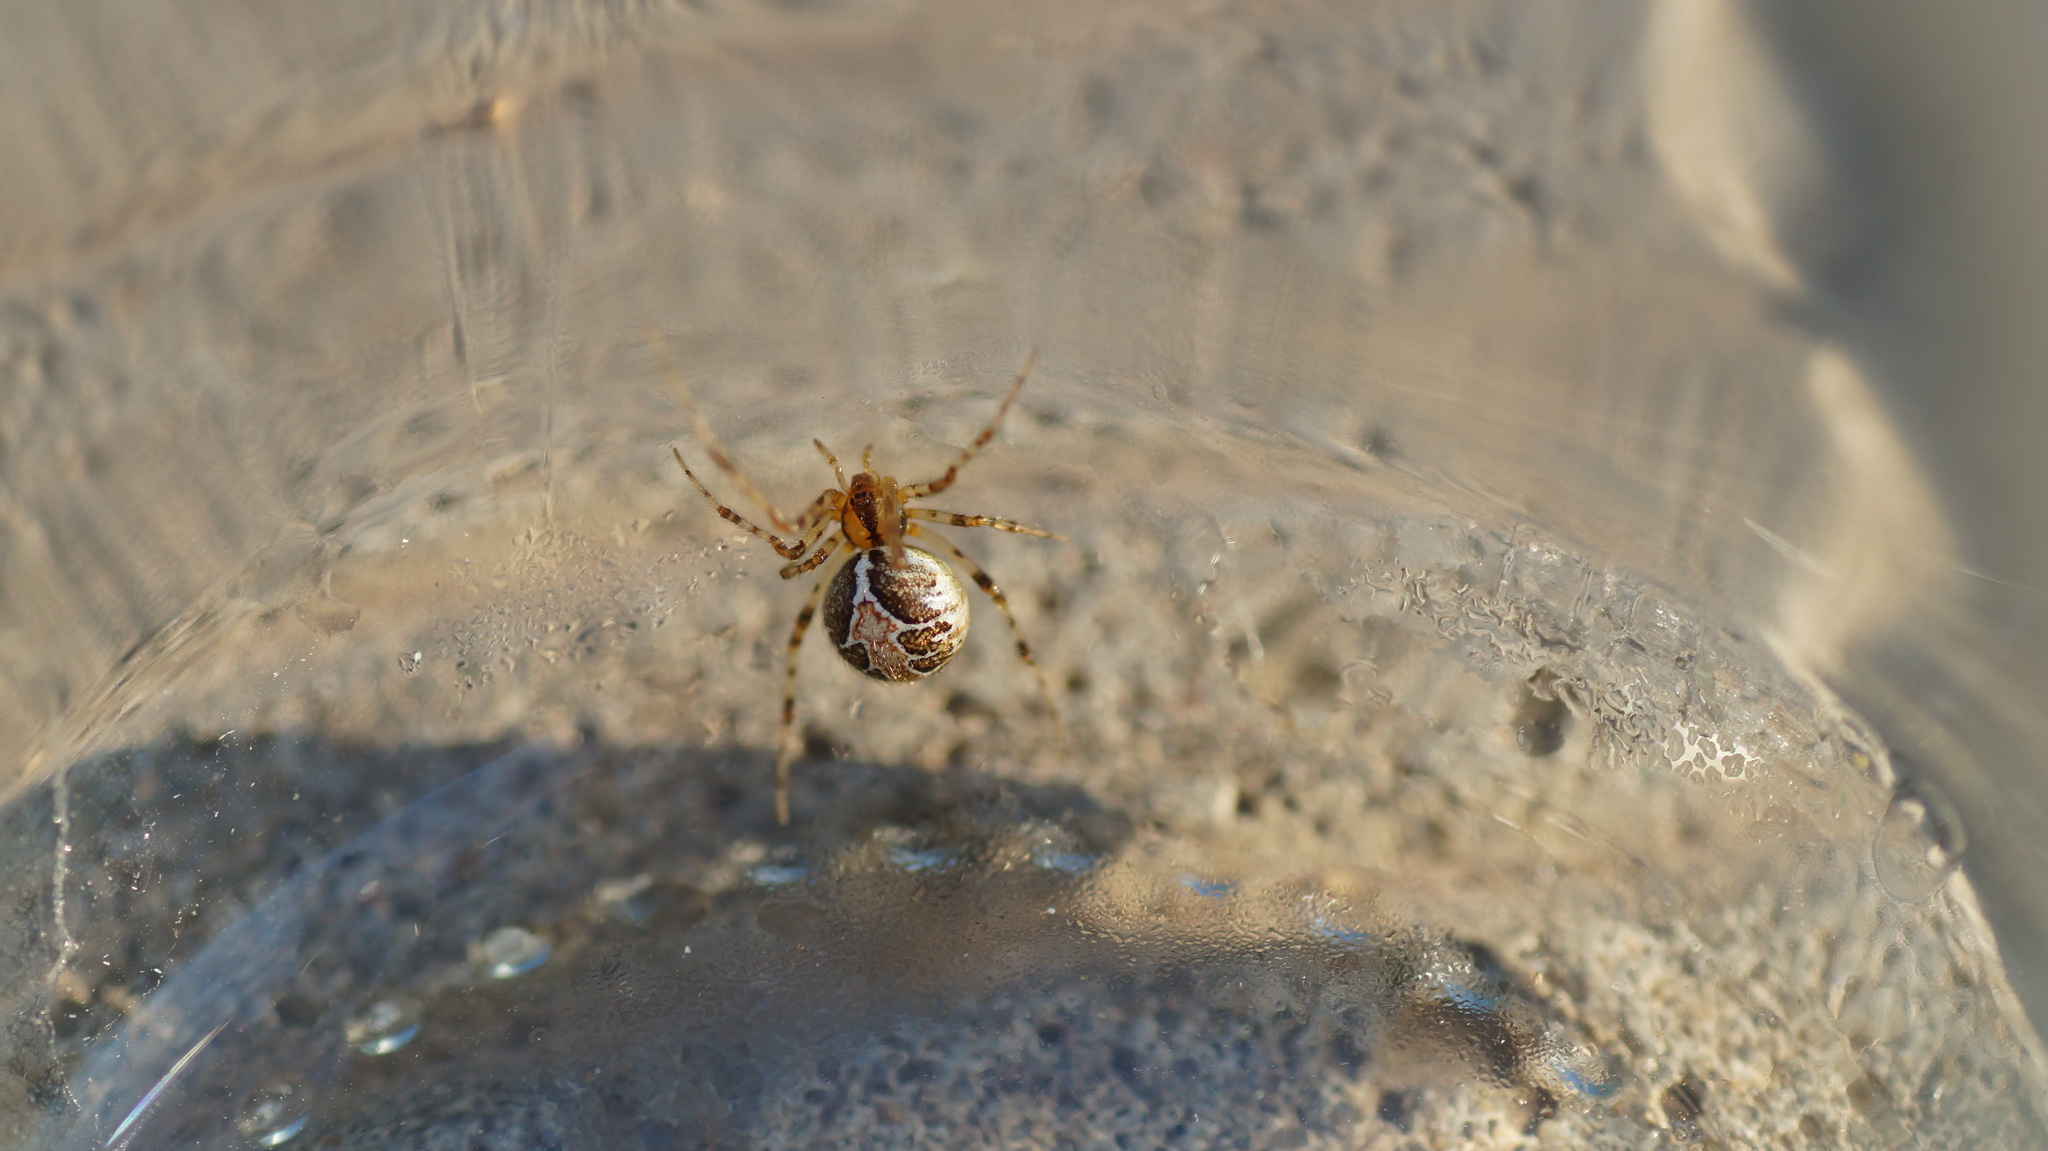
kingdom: Animalia
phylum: Arthropoda
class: Arachnida
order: Araneae
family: Theridiidae
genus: Theridion
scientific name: Theridion
